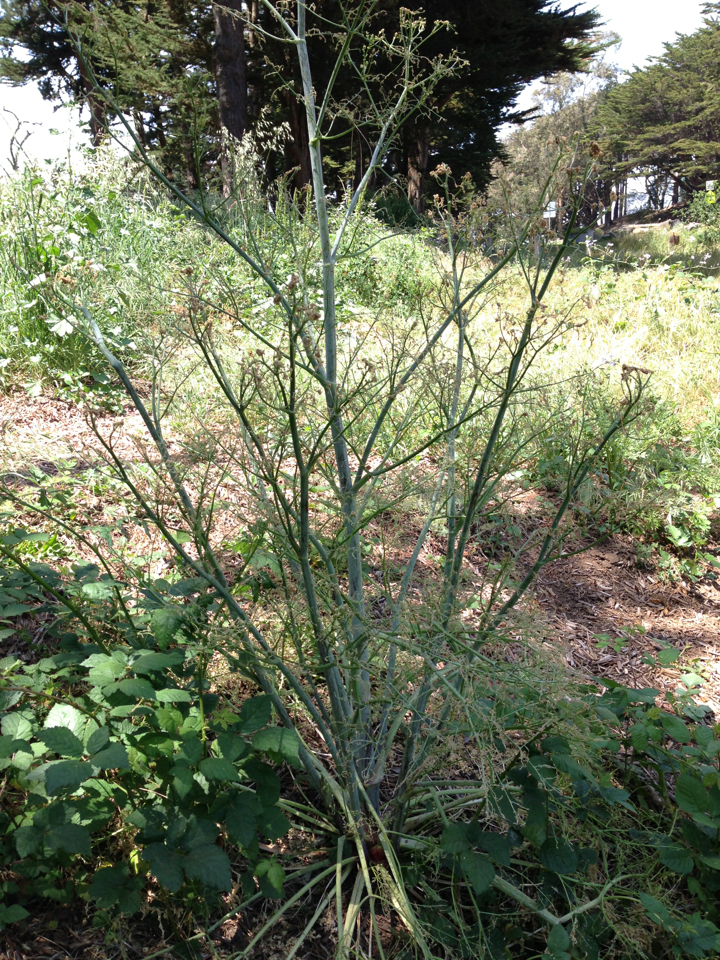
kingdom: Plantae
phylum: Tracheophyta
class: Magnoliopsida
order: Apiales
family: Apiaceae
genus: Conium
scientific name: Conium maculatum
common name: Hemlock
